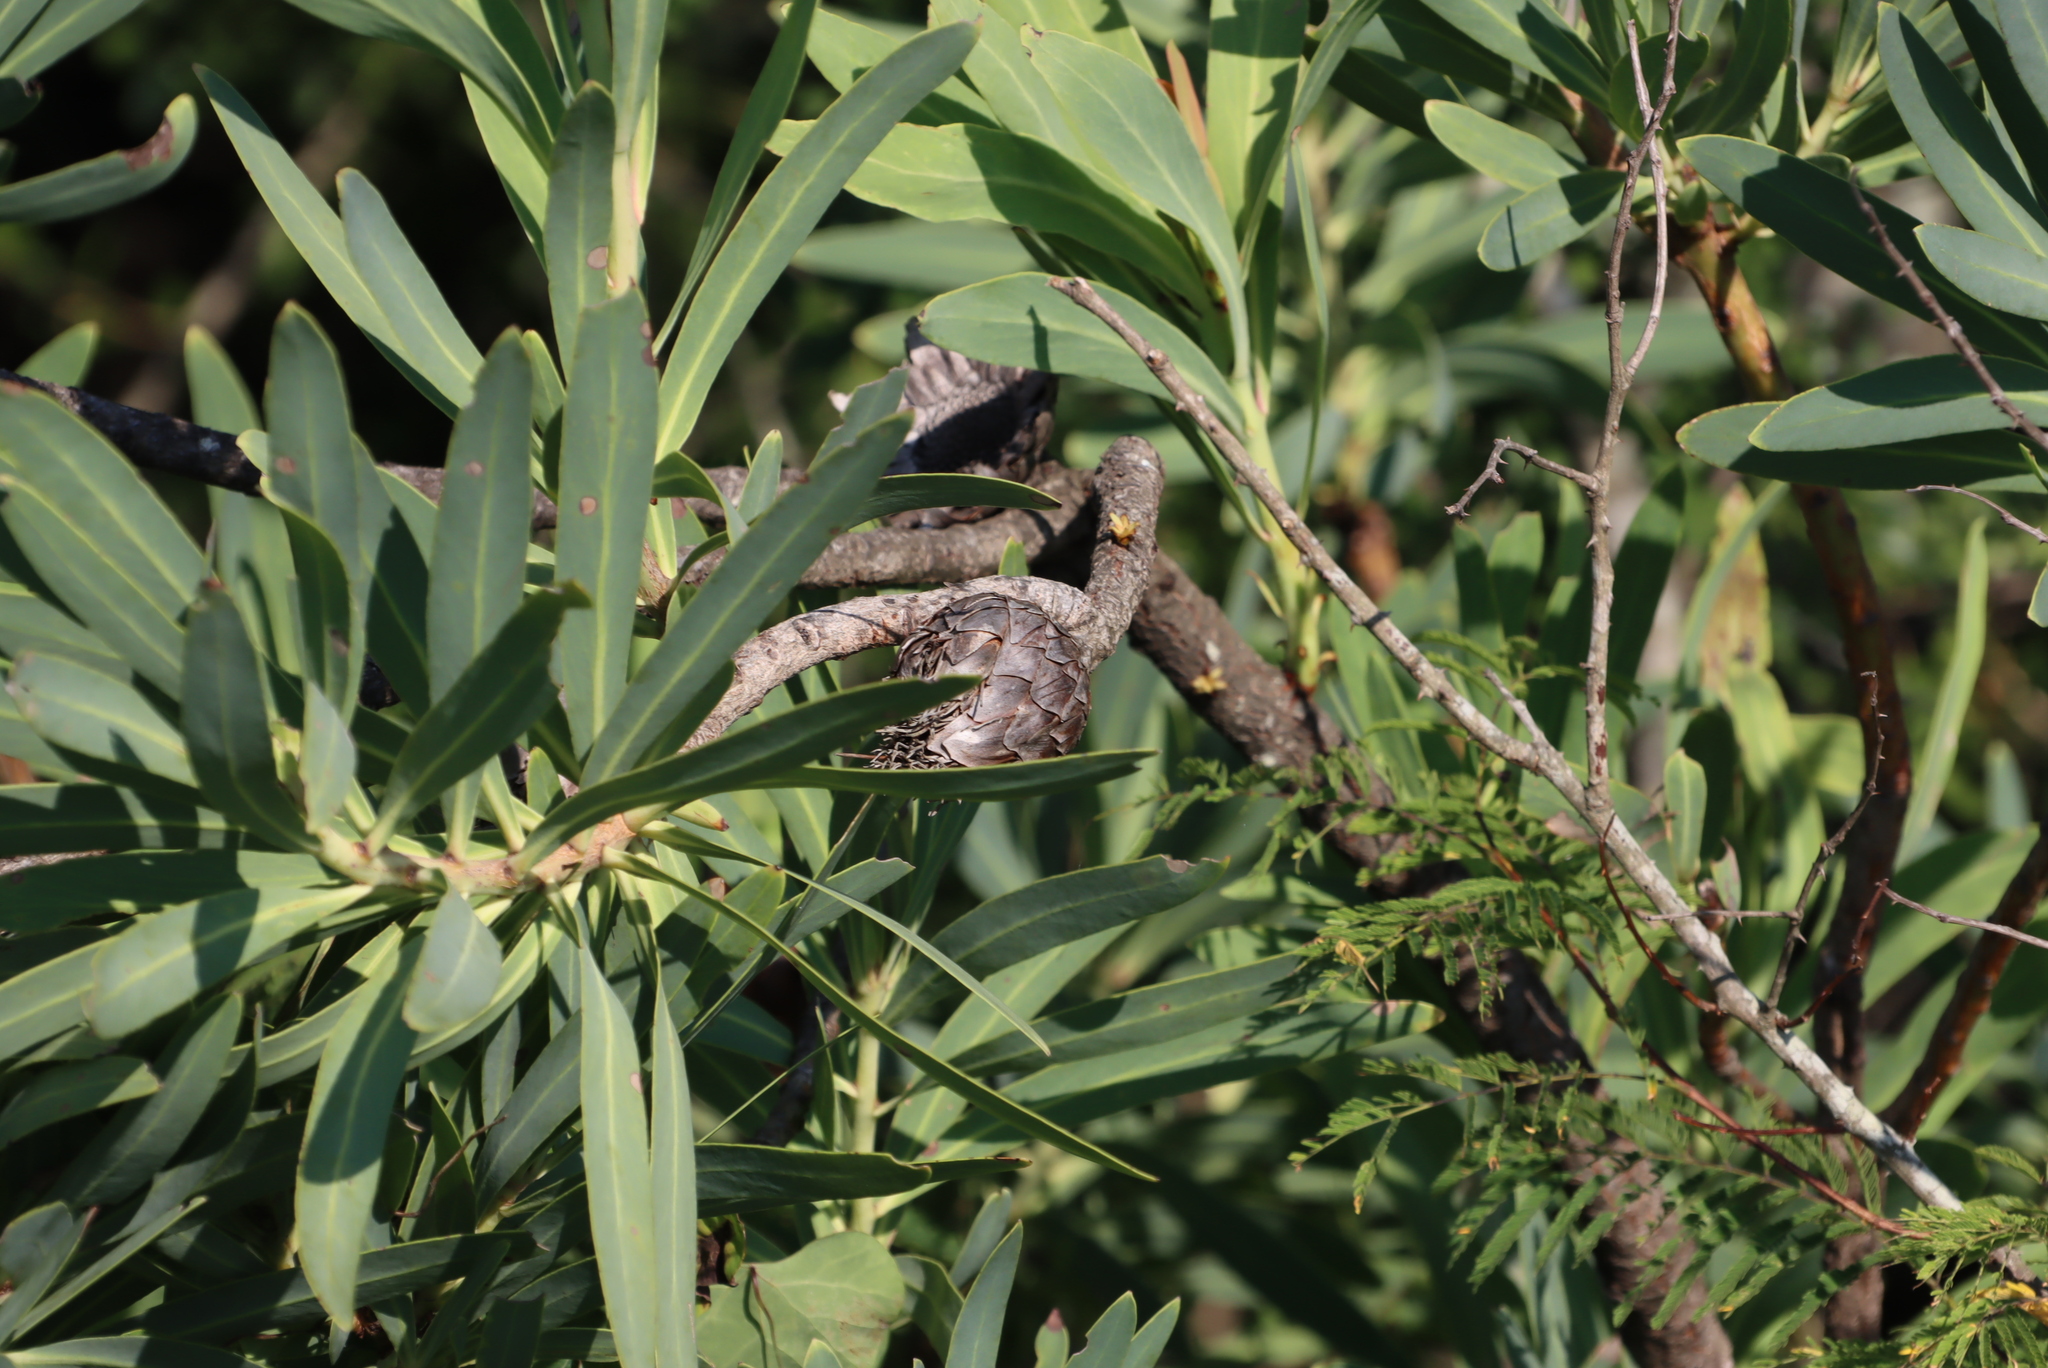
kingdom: Plantae
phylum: Tracheophyta
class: Magnoliopsida
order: Proteales
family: Proteaceae
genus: Protea
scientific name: Protea caffra
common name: Common sugarbush
